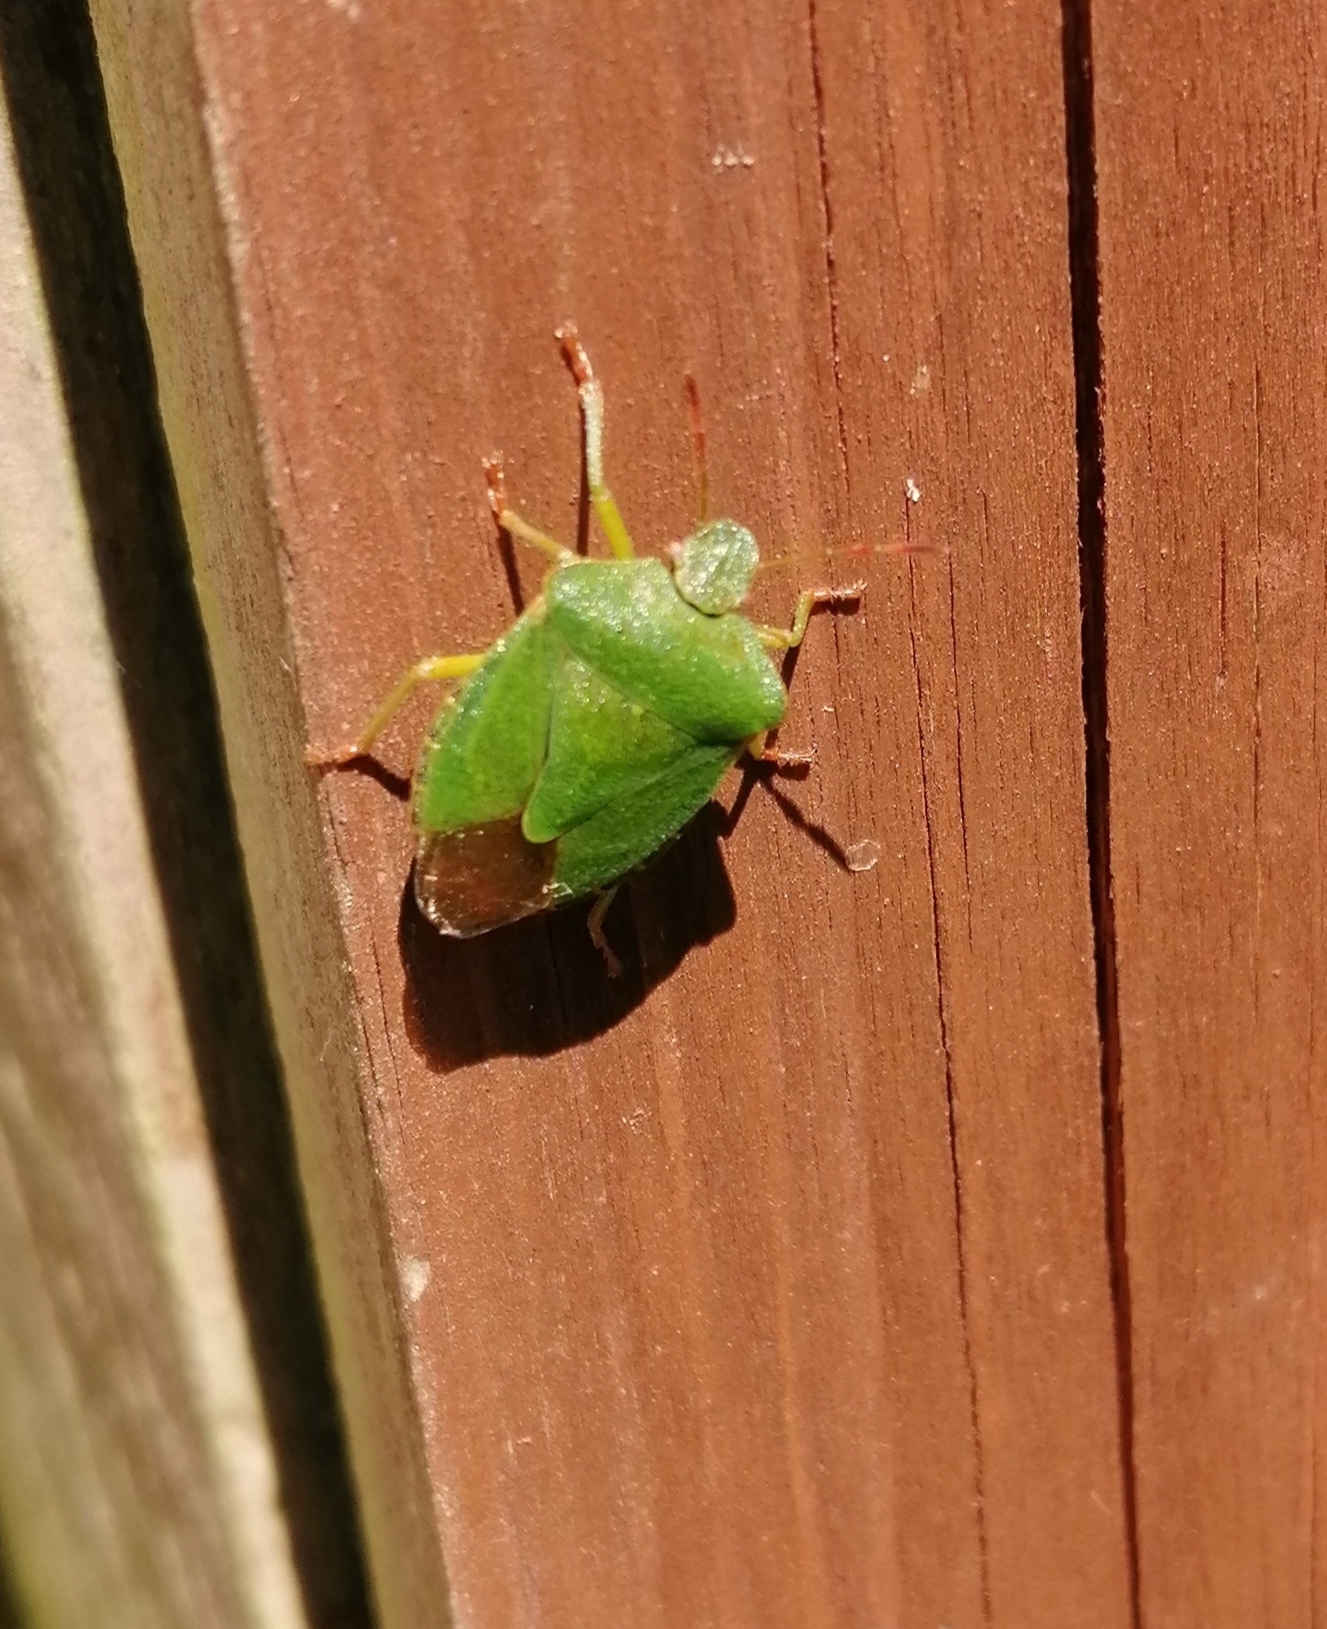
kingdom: Animalia
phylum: Arthropoda
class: Insecta
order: Hemiptera
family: Pentatomidae
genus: Palomena
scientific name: Palomena prasina
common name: Green shieldbug
